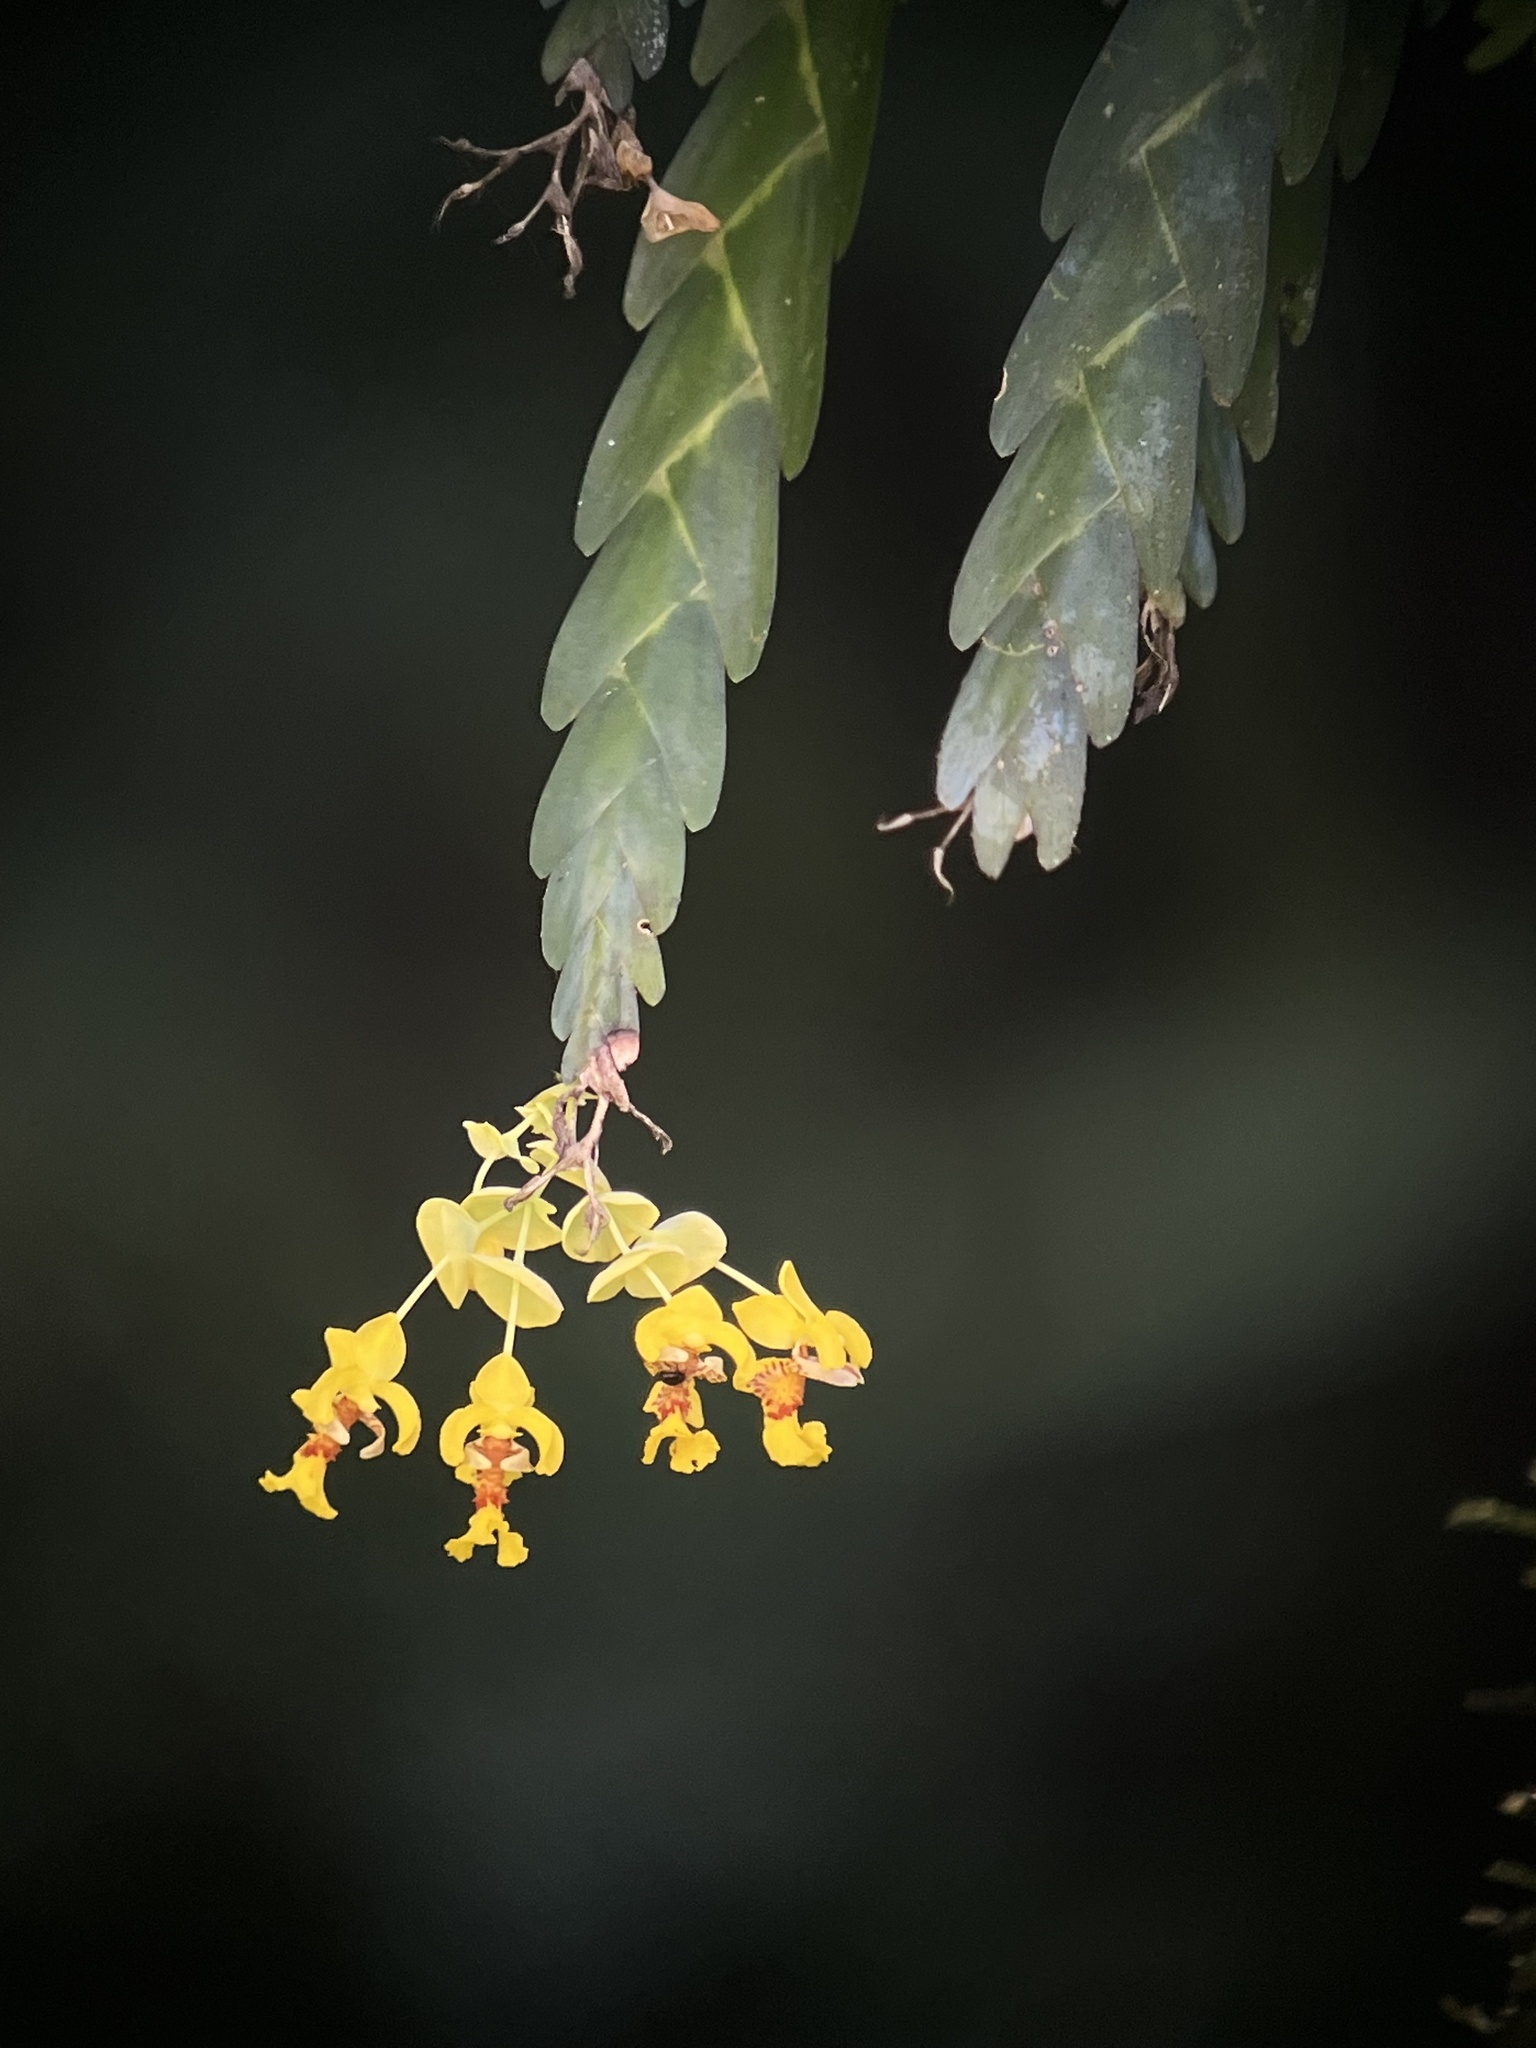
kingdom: Plantae
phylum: Tracheophyta
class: Liliopsida
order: Asparagales
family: Orchidaceae
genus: Lockhartia
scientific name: Lockhartia amoena
